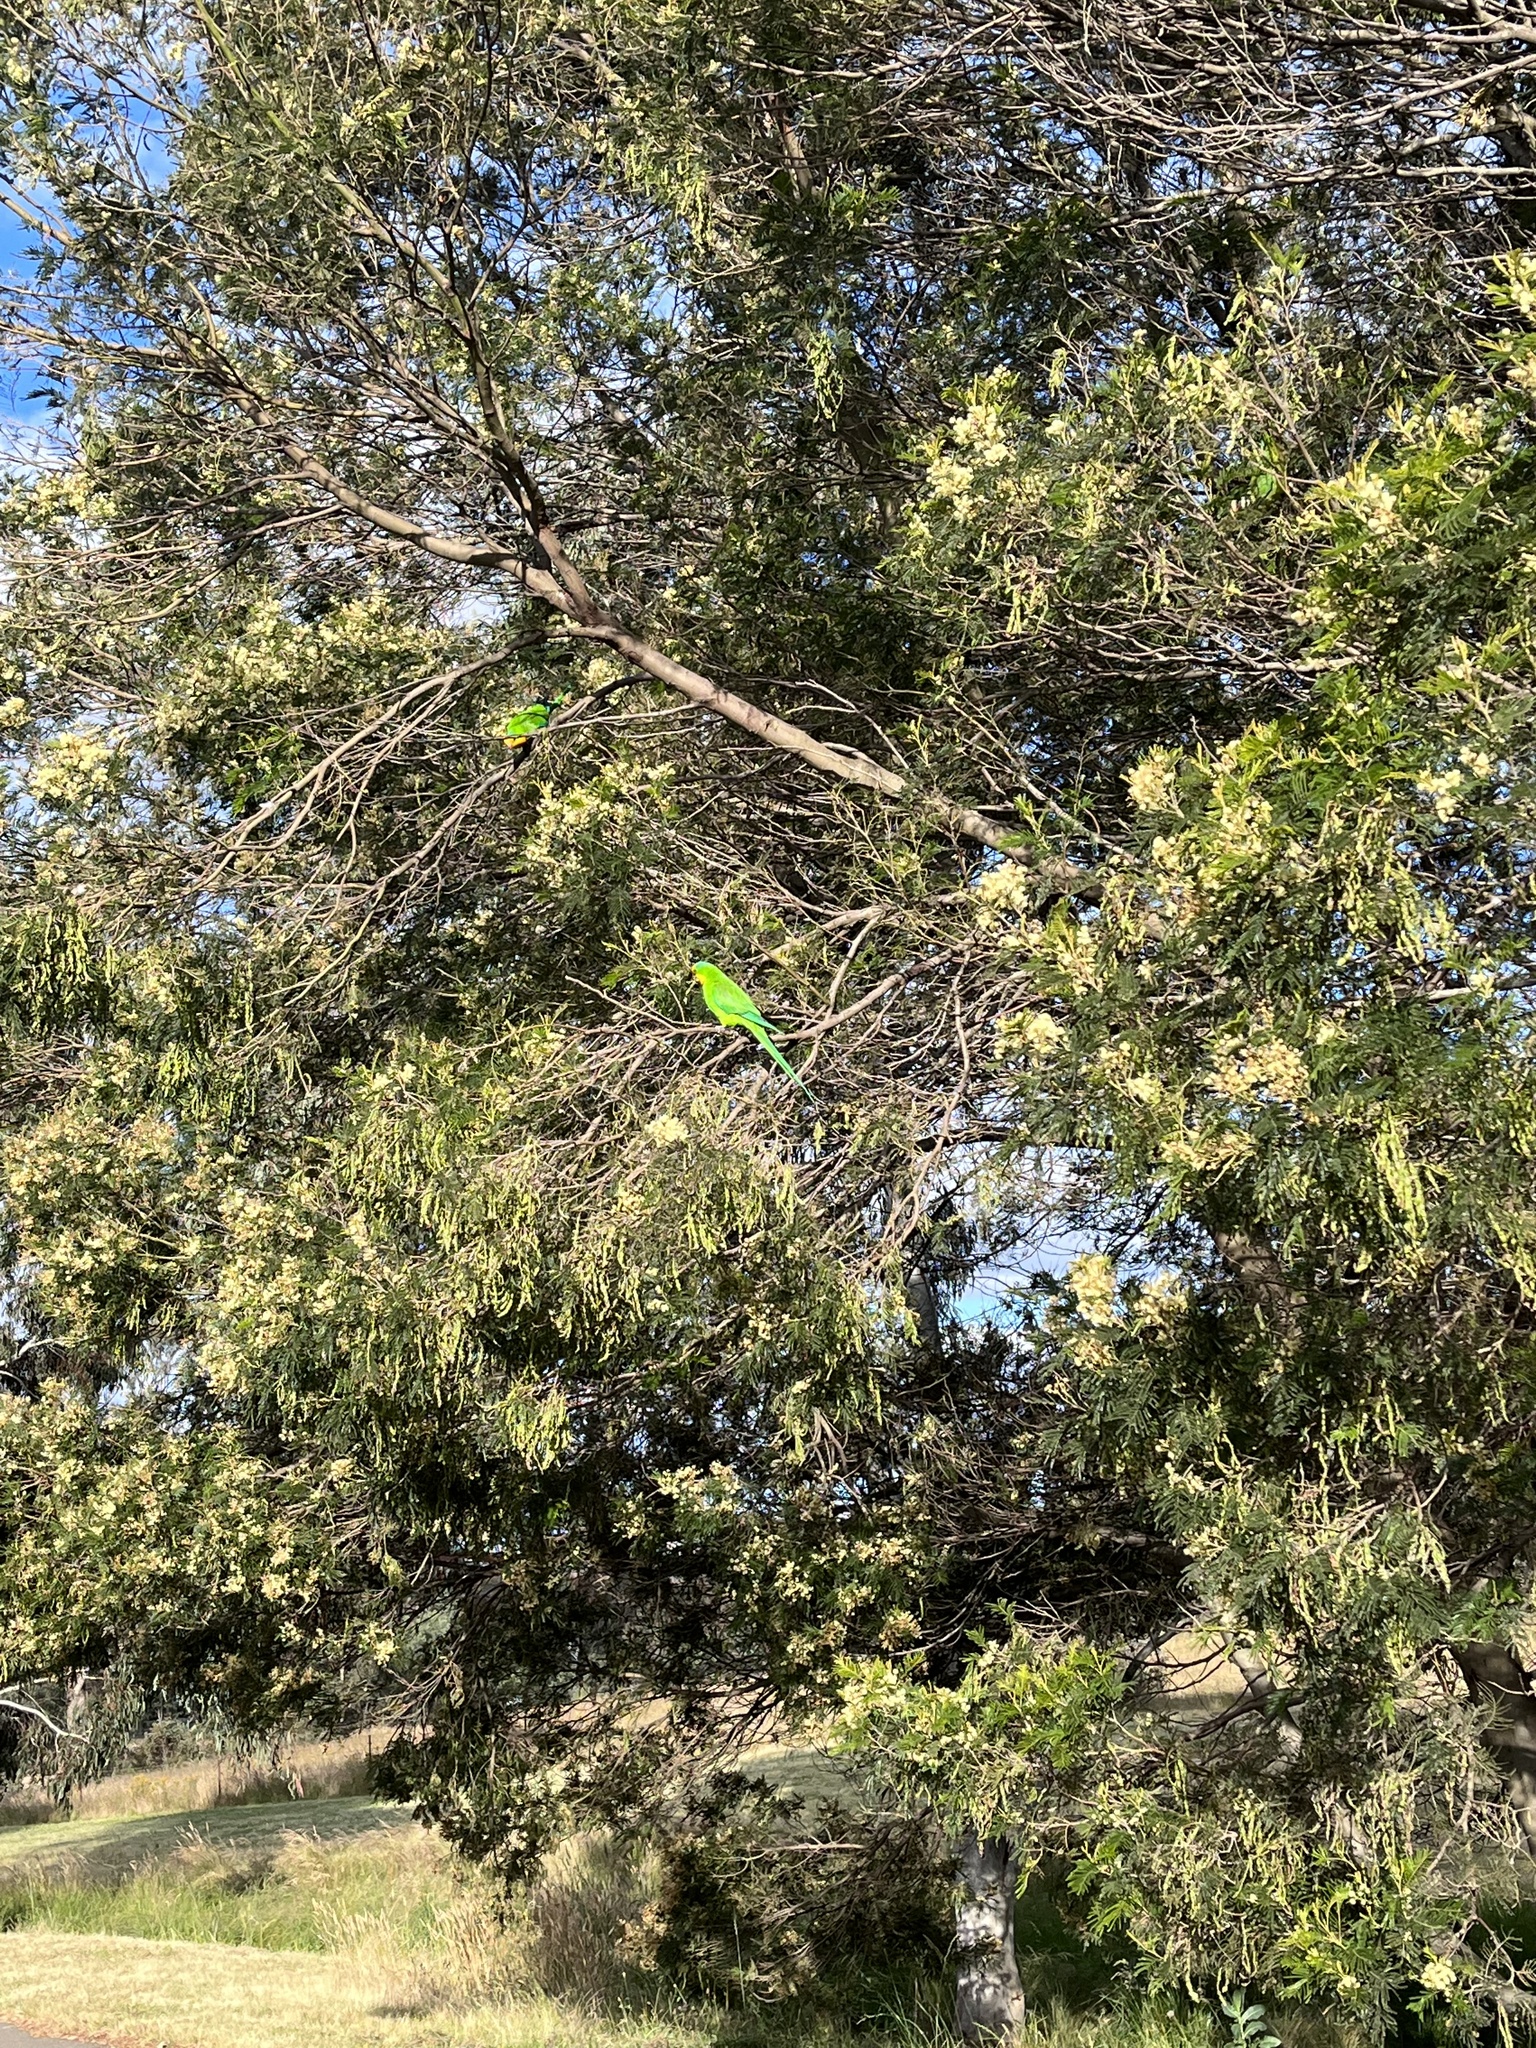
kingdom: Animalia
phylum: Chordata
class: Aves
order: Psittaciformes
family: Psittacidae
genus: Polytelis
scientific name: Polytelis swainsonii
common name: Superb parrot
